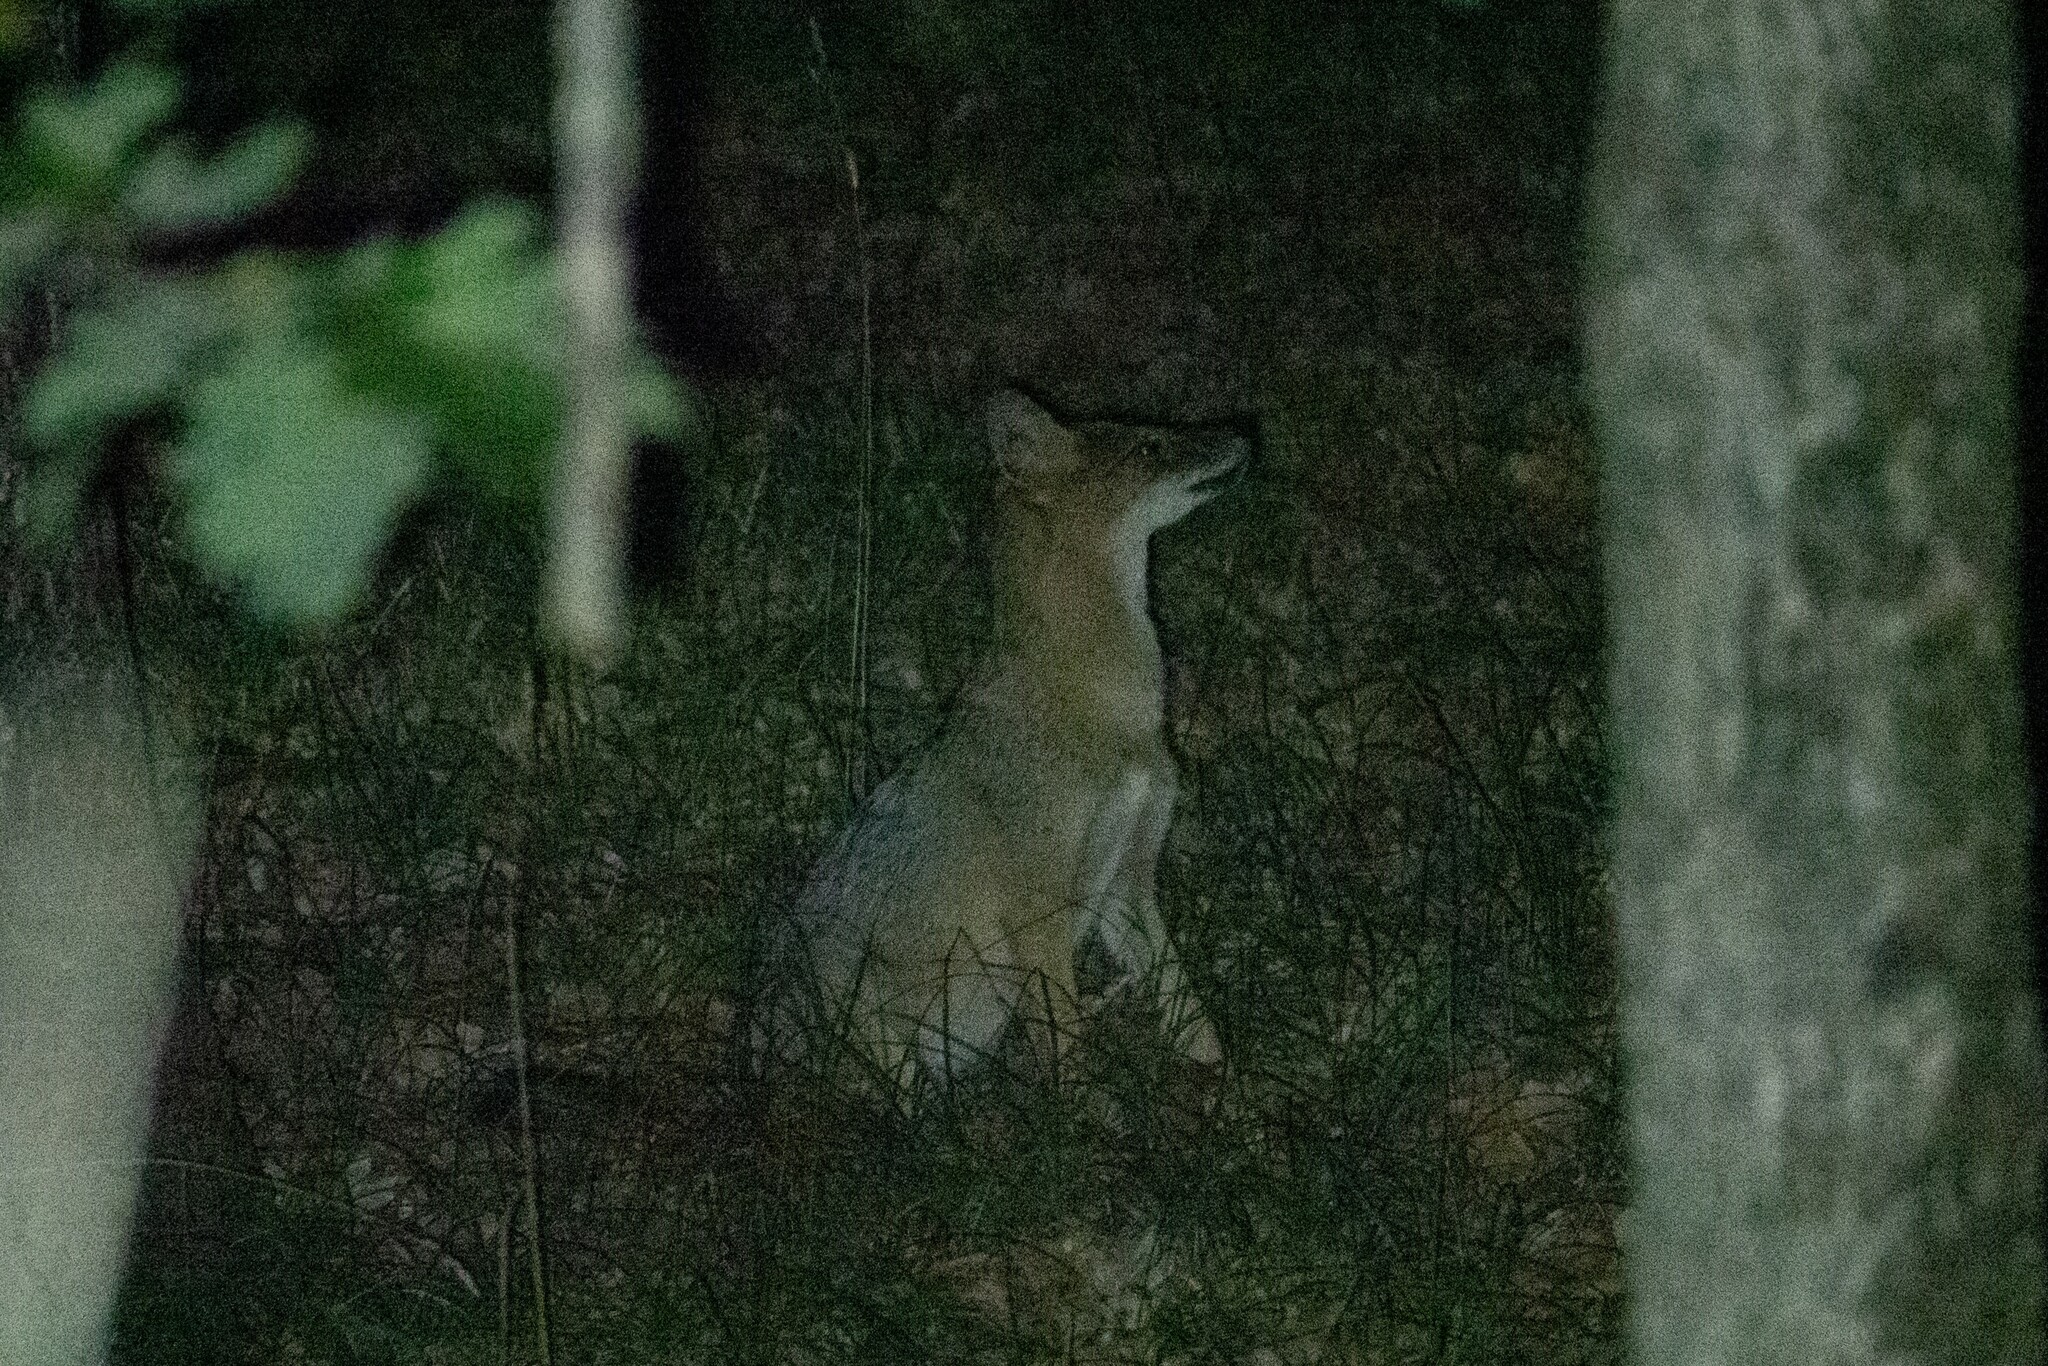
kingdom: Animalia
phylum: Chordata
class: Mammalia
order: Carnivora
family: Canidae
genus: Canis
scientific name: Canis aureus
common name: Golden jackal
